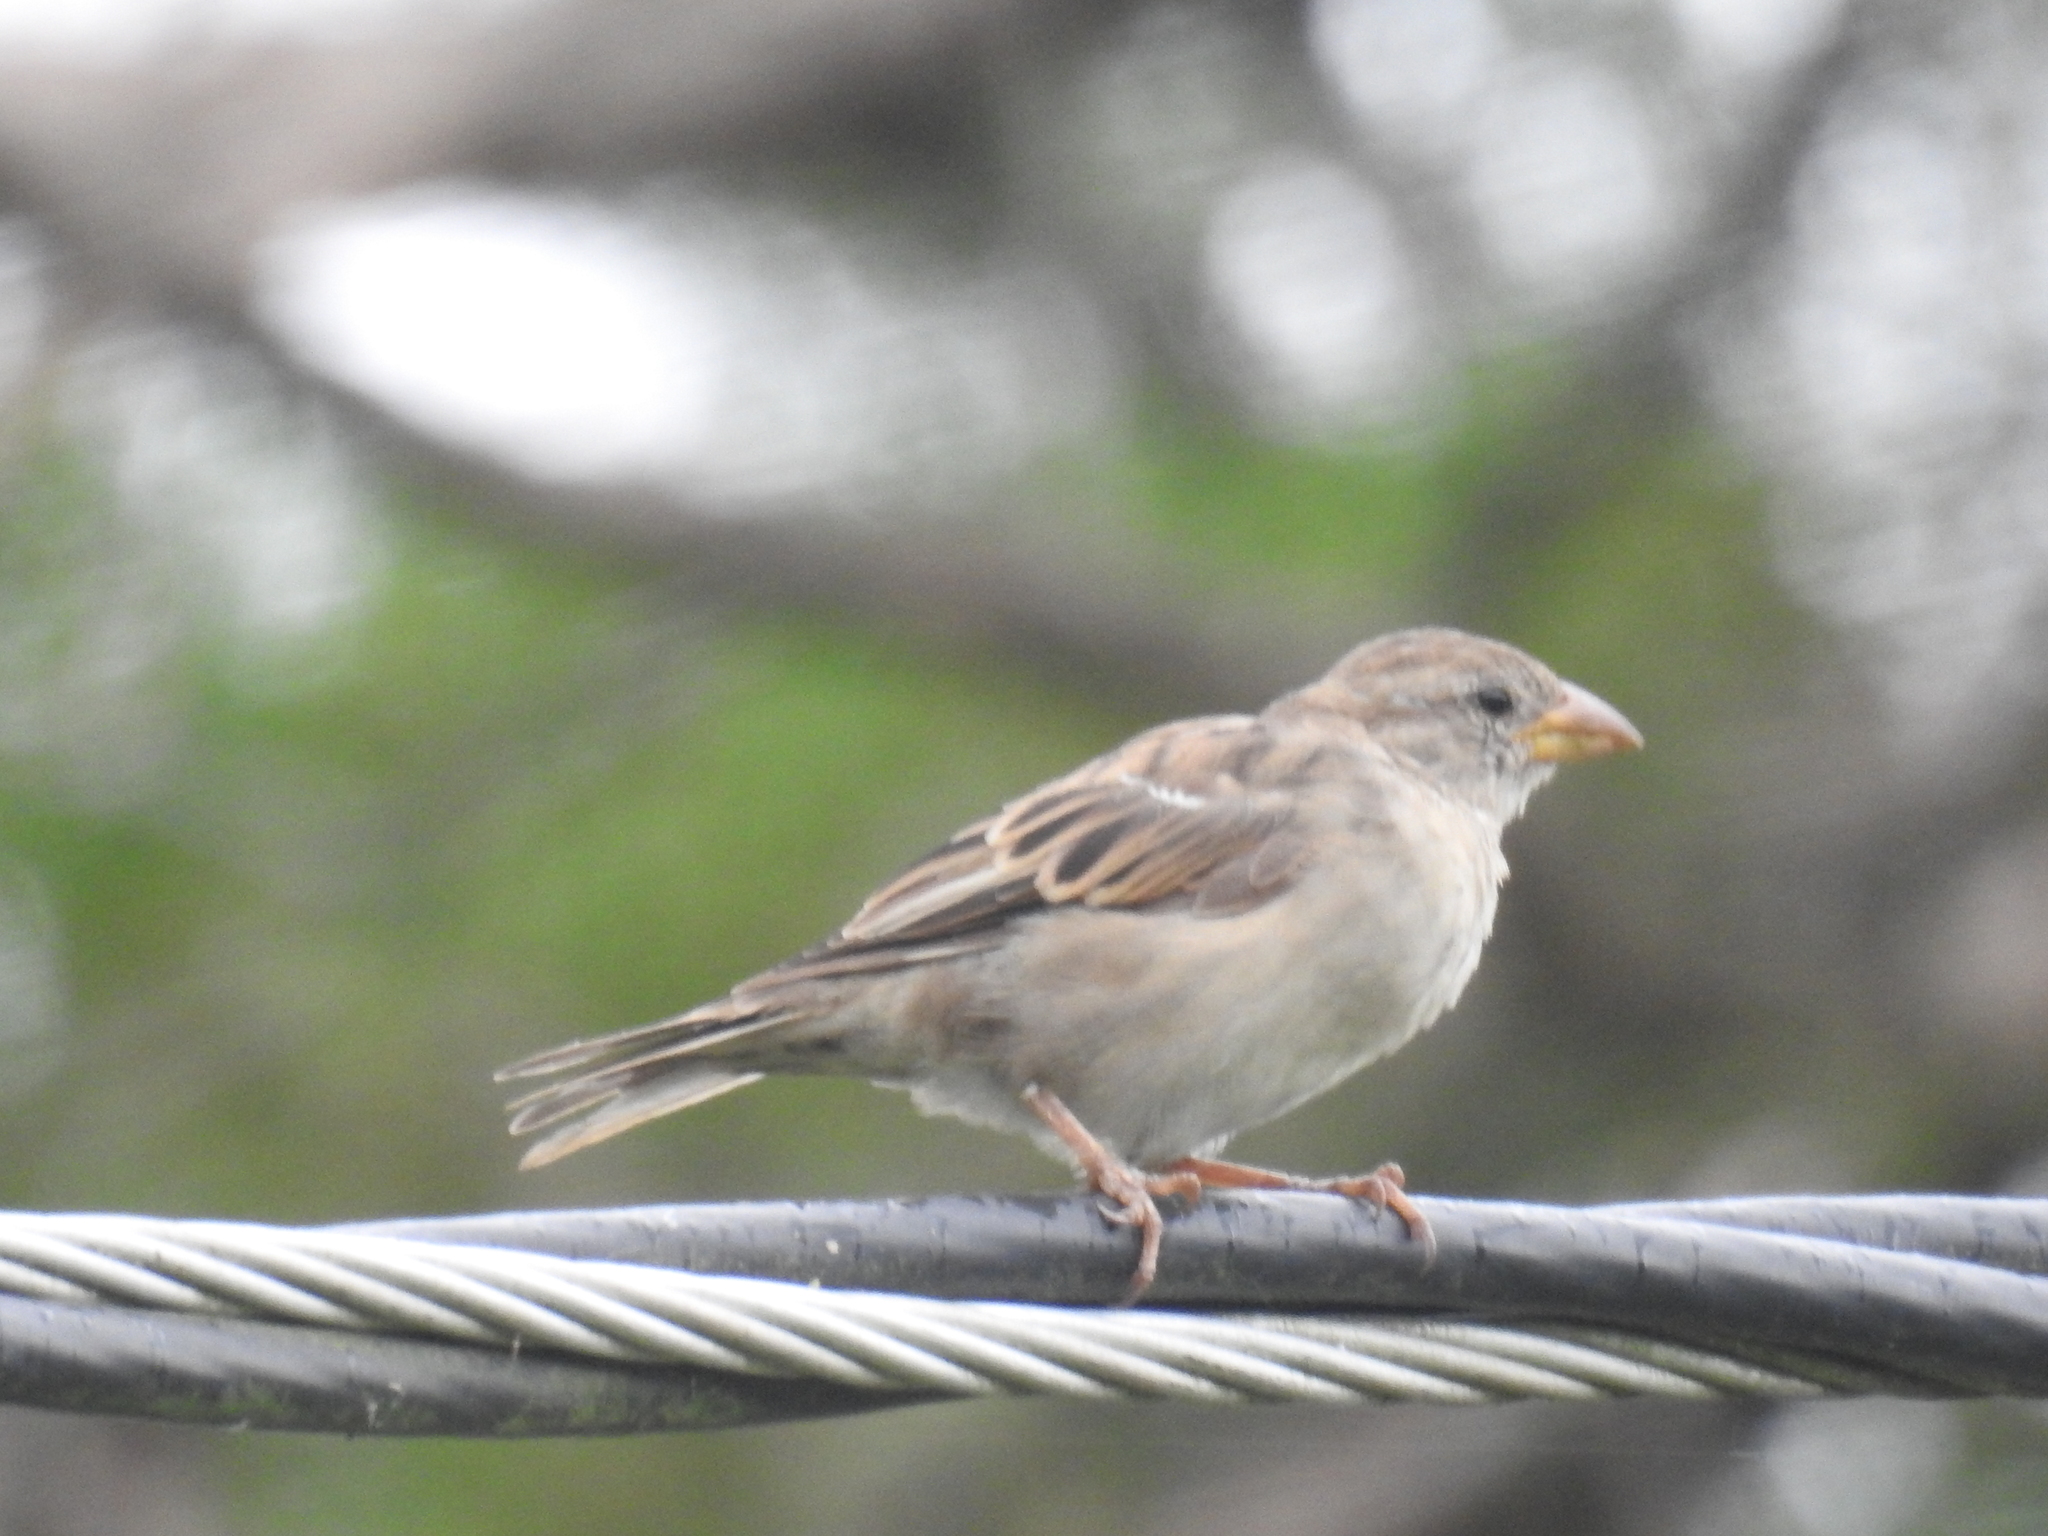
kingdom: Animalia
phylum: Chordata
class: Aves
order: Passeriformes
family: Passeridae
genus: Passer
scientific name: Passer domesticus
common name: House sparrow
